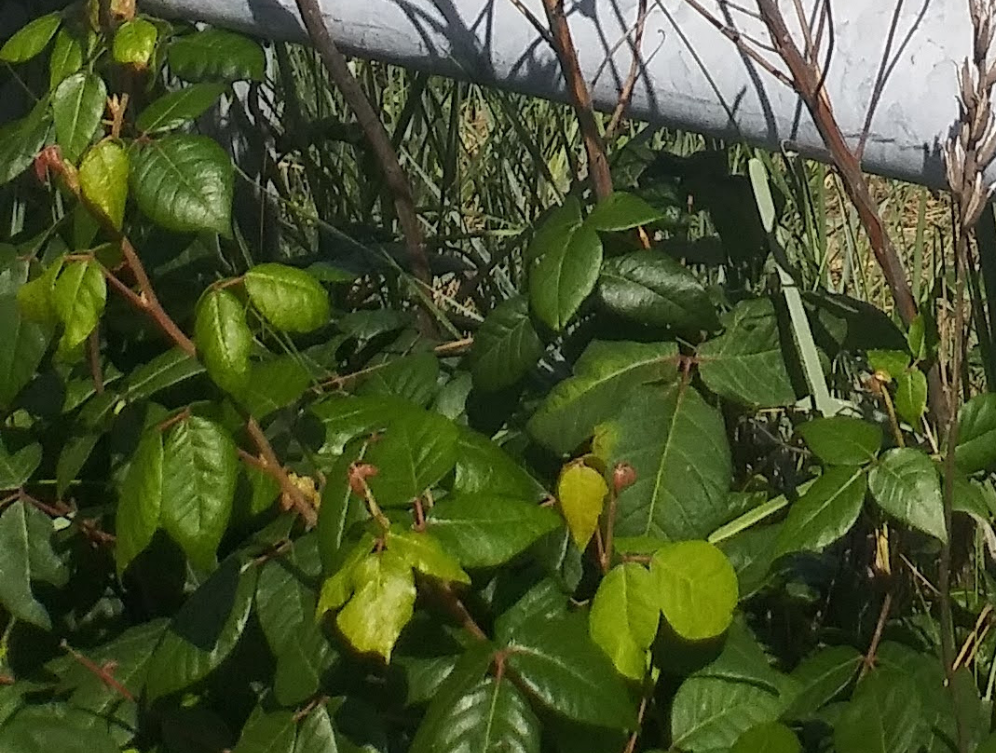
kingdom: Plantae
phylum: Tracheophyta
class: Magnoliopsida
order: Sapindales
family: Anacardiaceae
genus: Toxicodendron
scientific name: Toxicodendron radicans
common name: Poison ivy
